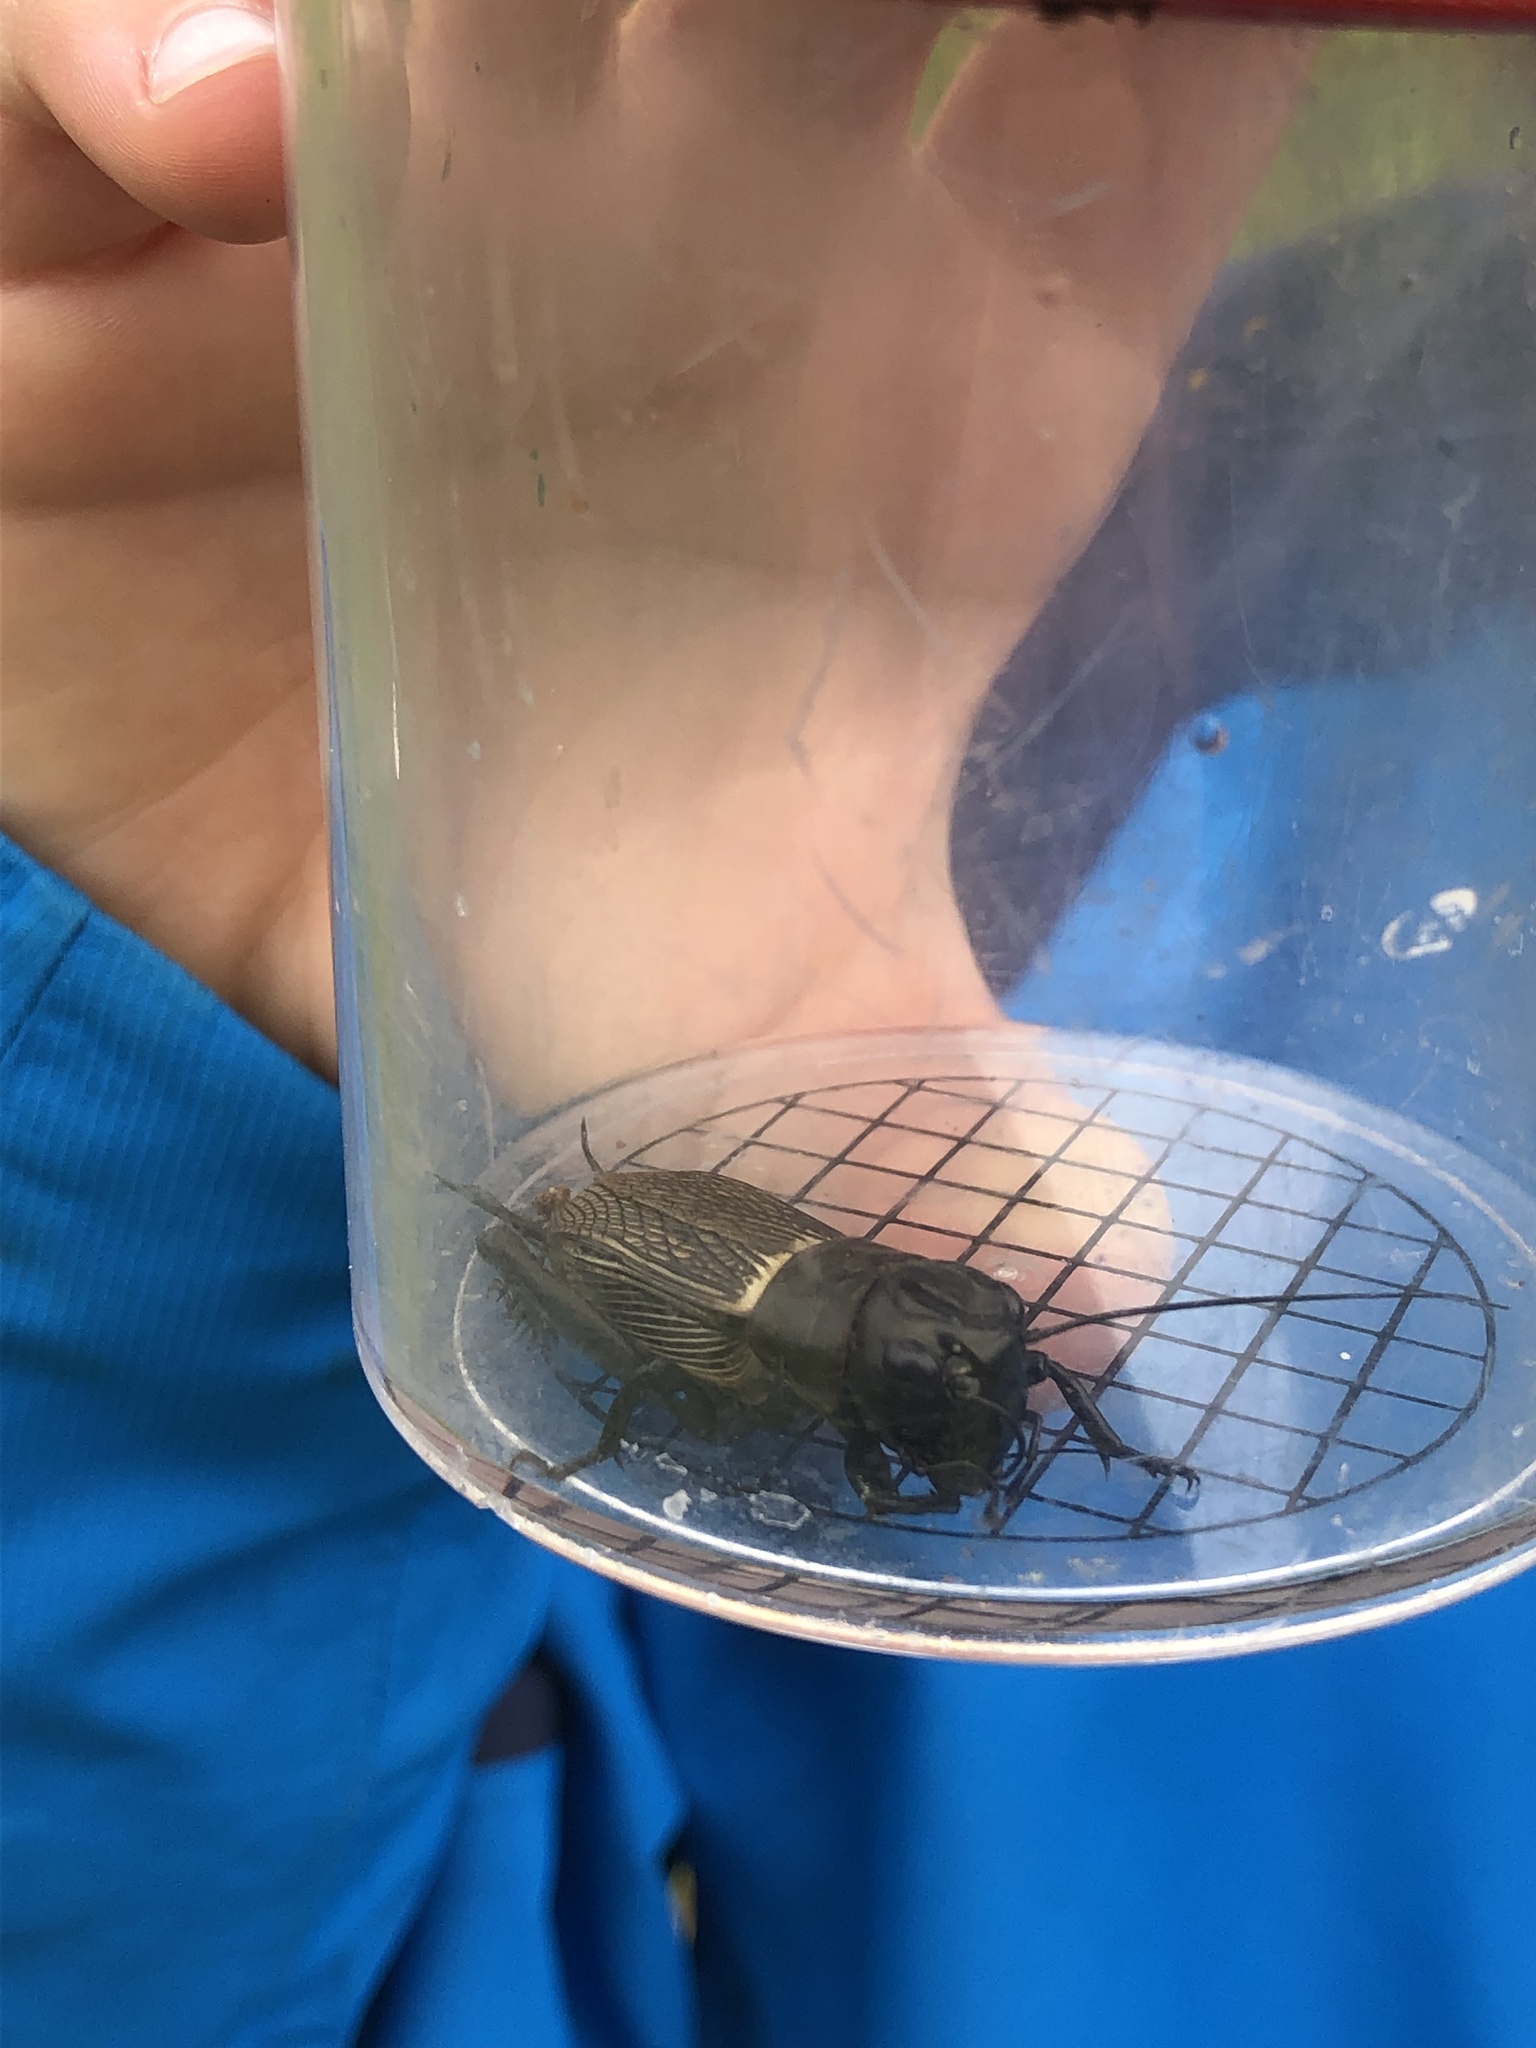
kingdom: Animalia
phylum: Arthropoda
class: Insecta
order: Orthoptera
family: Gryllidae
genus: Gryllus
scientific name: Gryllus campestris
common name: Field cricket
